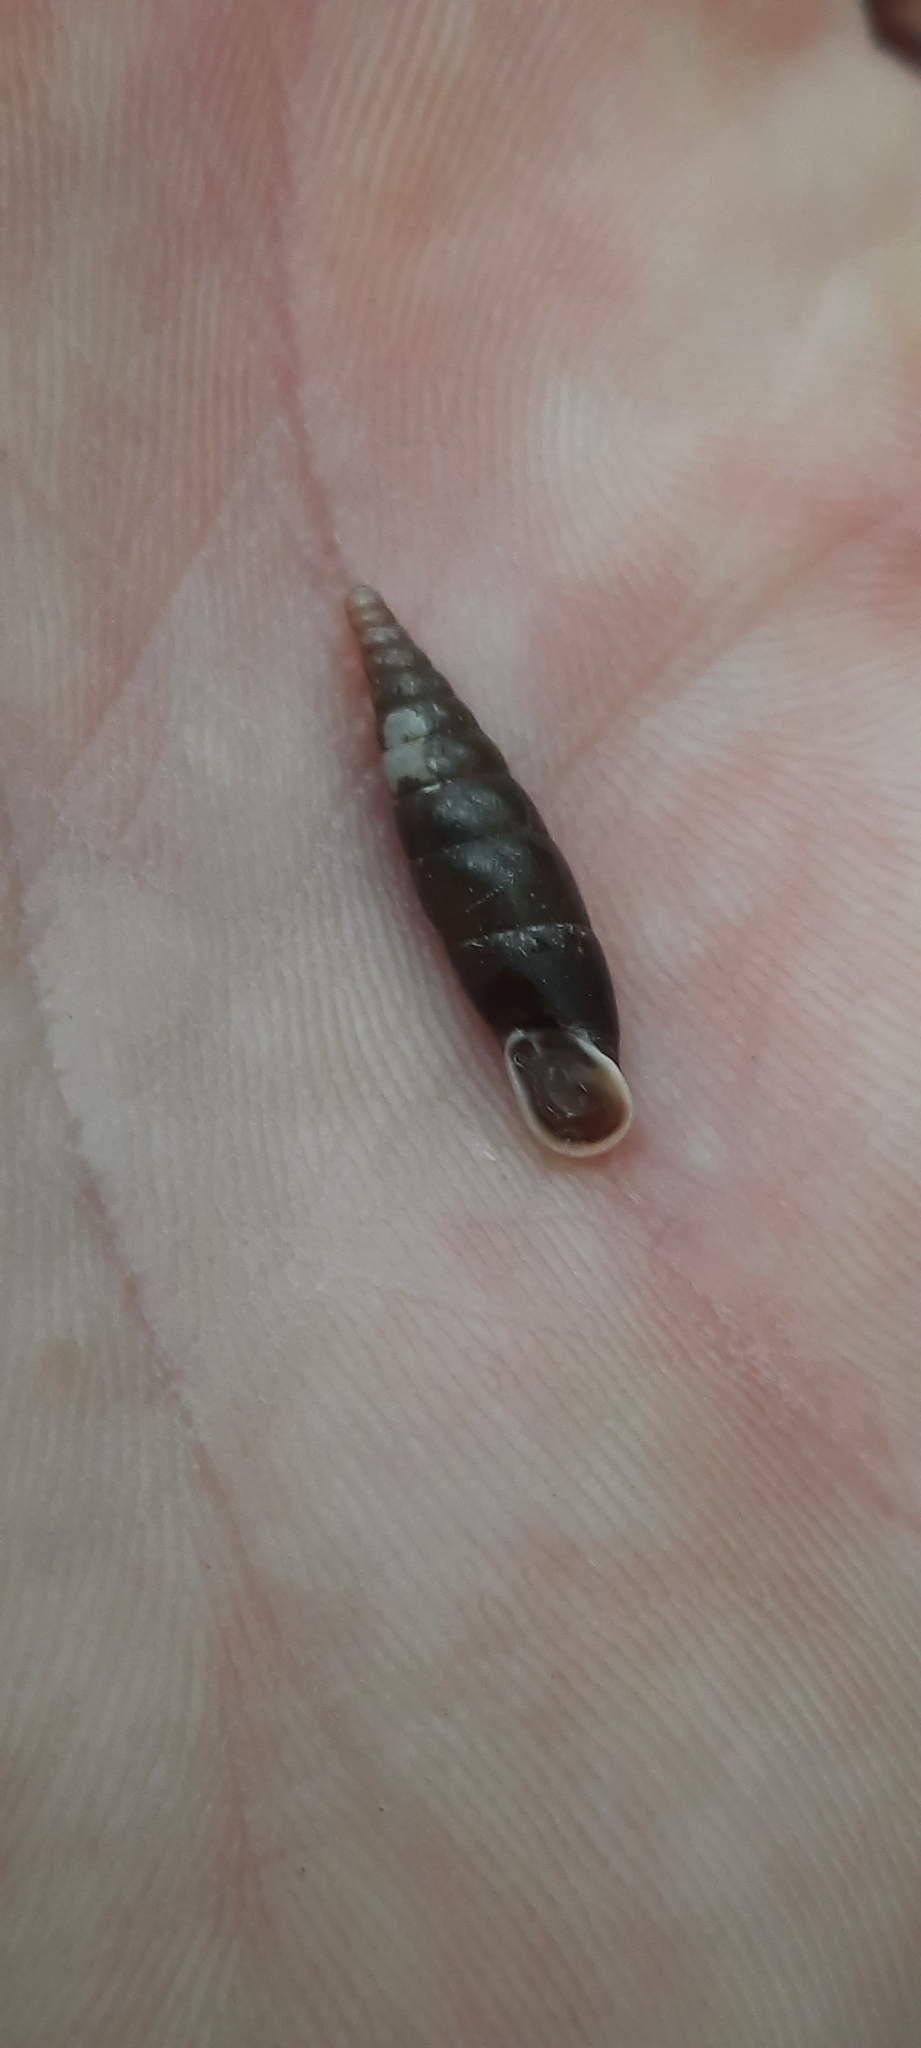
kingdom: Animalia
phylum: Mollusca
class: Gastropoda
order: Stylommatophora
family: Clausiliidae
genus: Cochlodina
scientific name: Cochlodina laminata
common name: Plaited door snail
